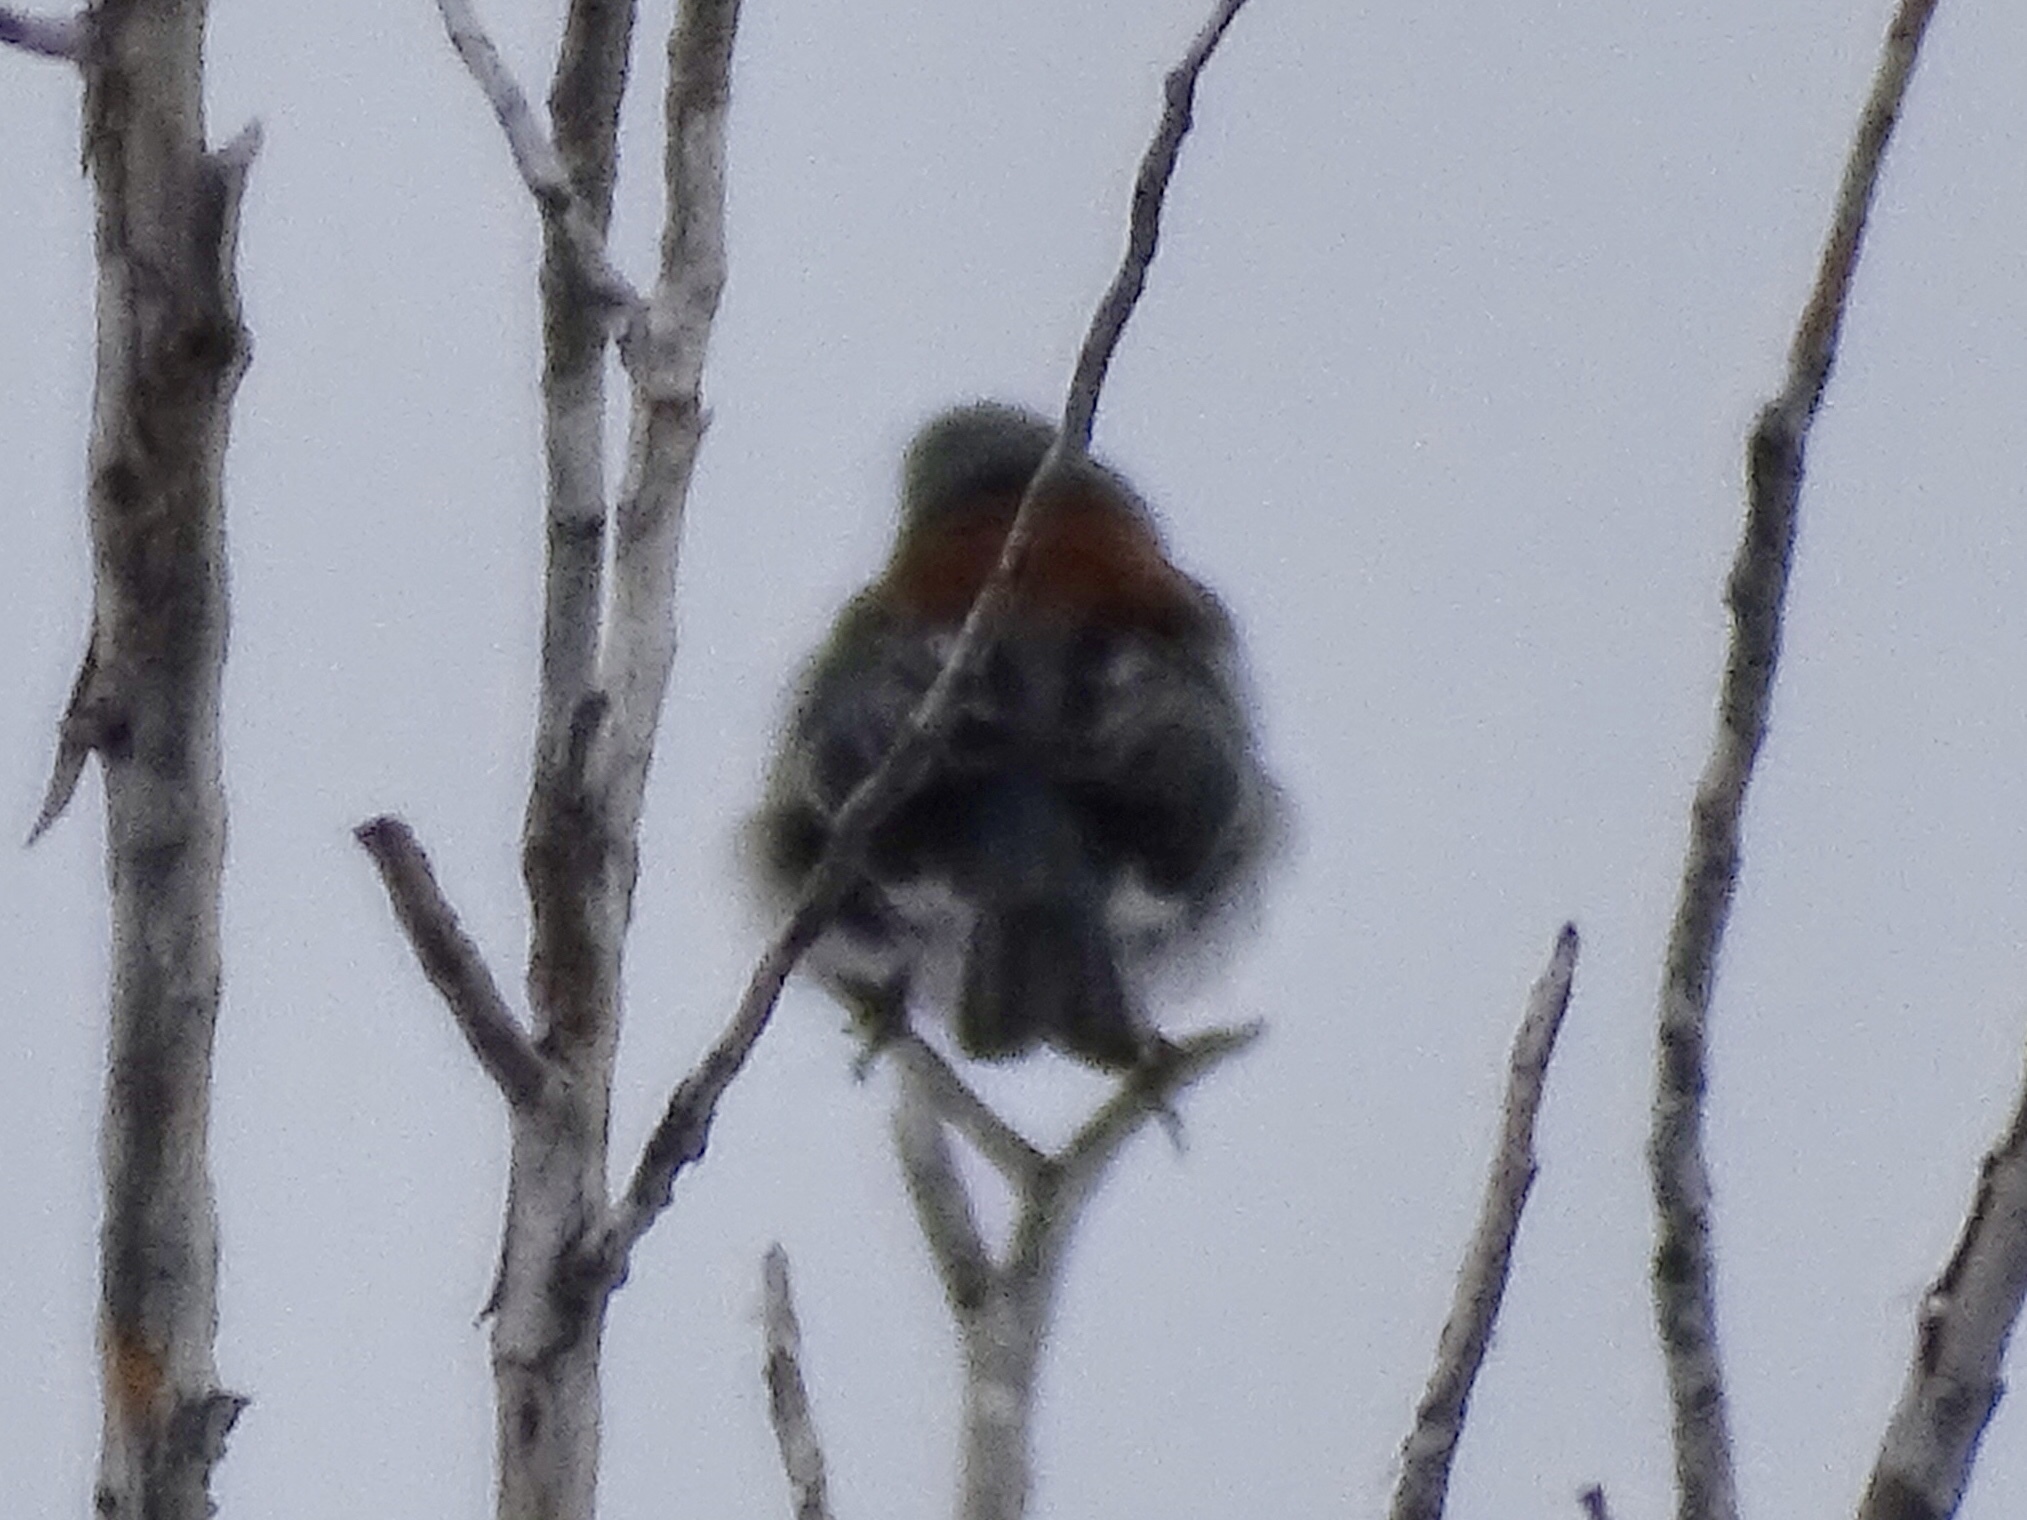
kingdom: Animalia
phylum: Chordata
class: Aves
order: Passeriformes
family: Passerellidae
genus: Junco
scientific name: Junco hyemalis
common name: Dark-eyed junco
